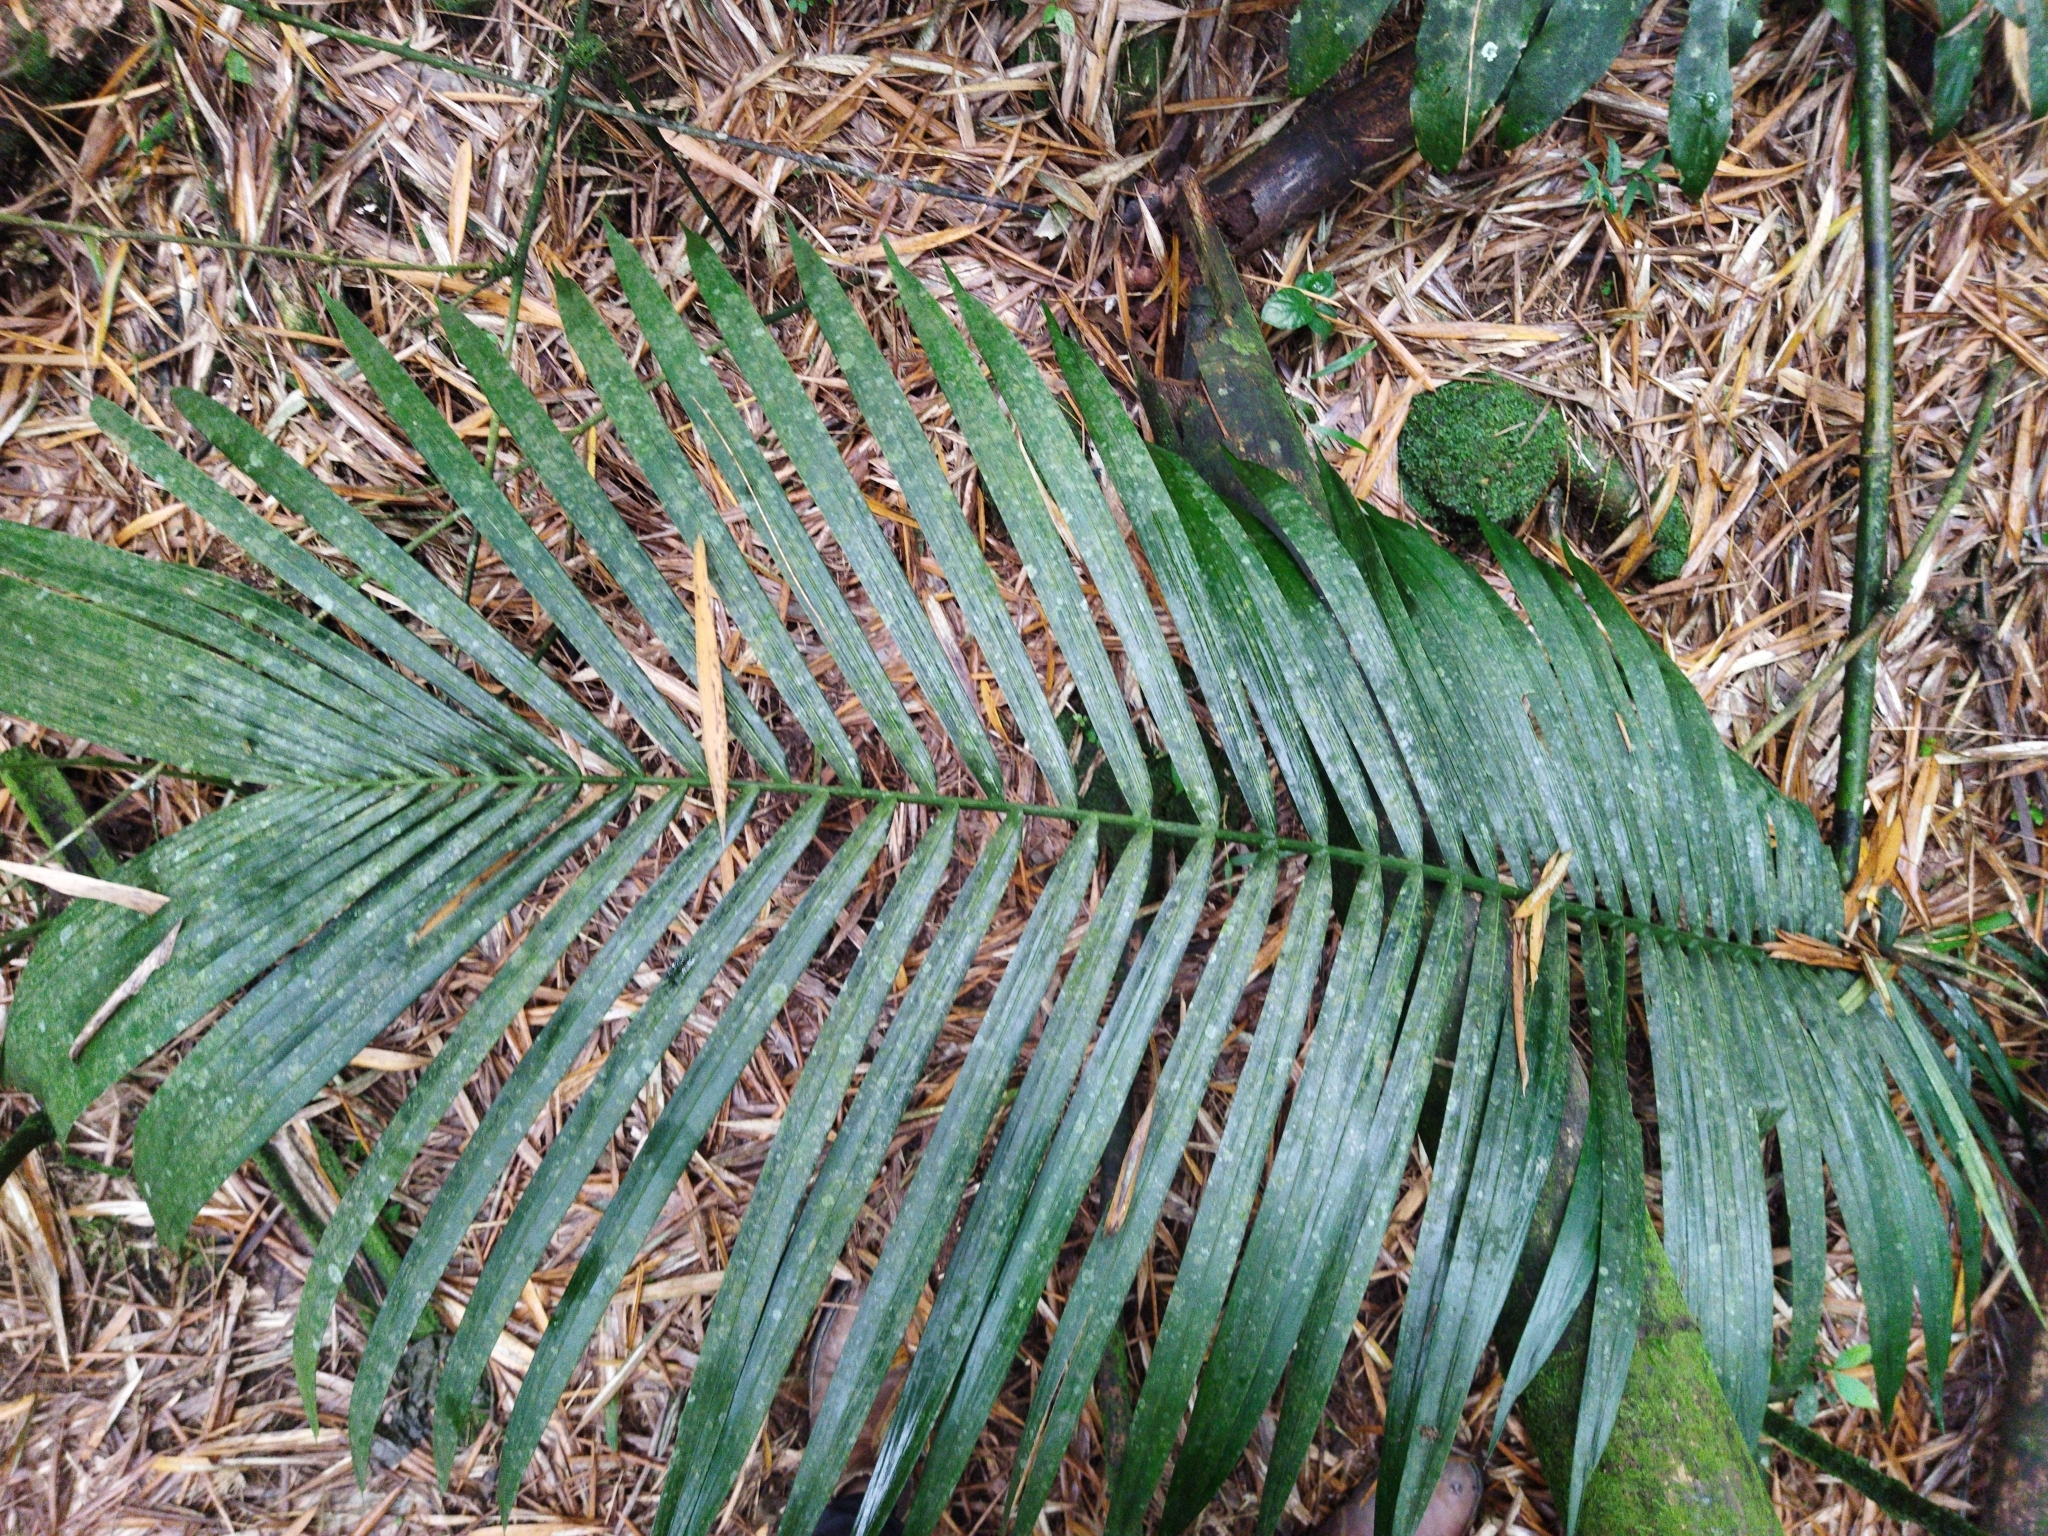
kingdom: Plantae
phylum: Tracheophyta
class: Liliopsida
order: Arecales
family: Arecaceae
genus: Ceroxylon
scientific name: Ceroxylon quindiuense
